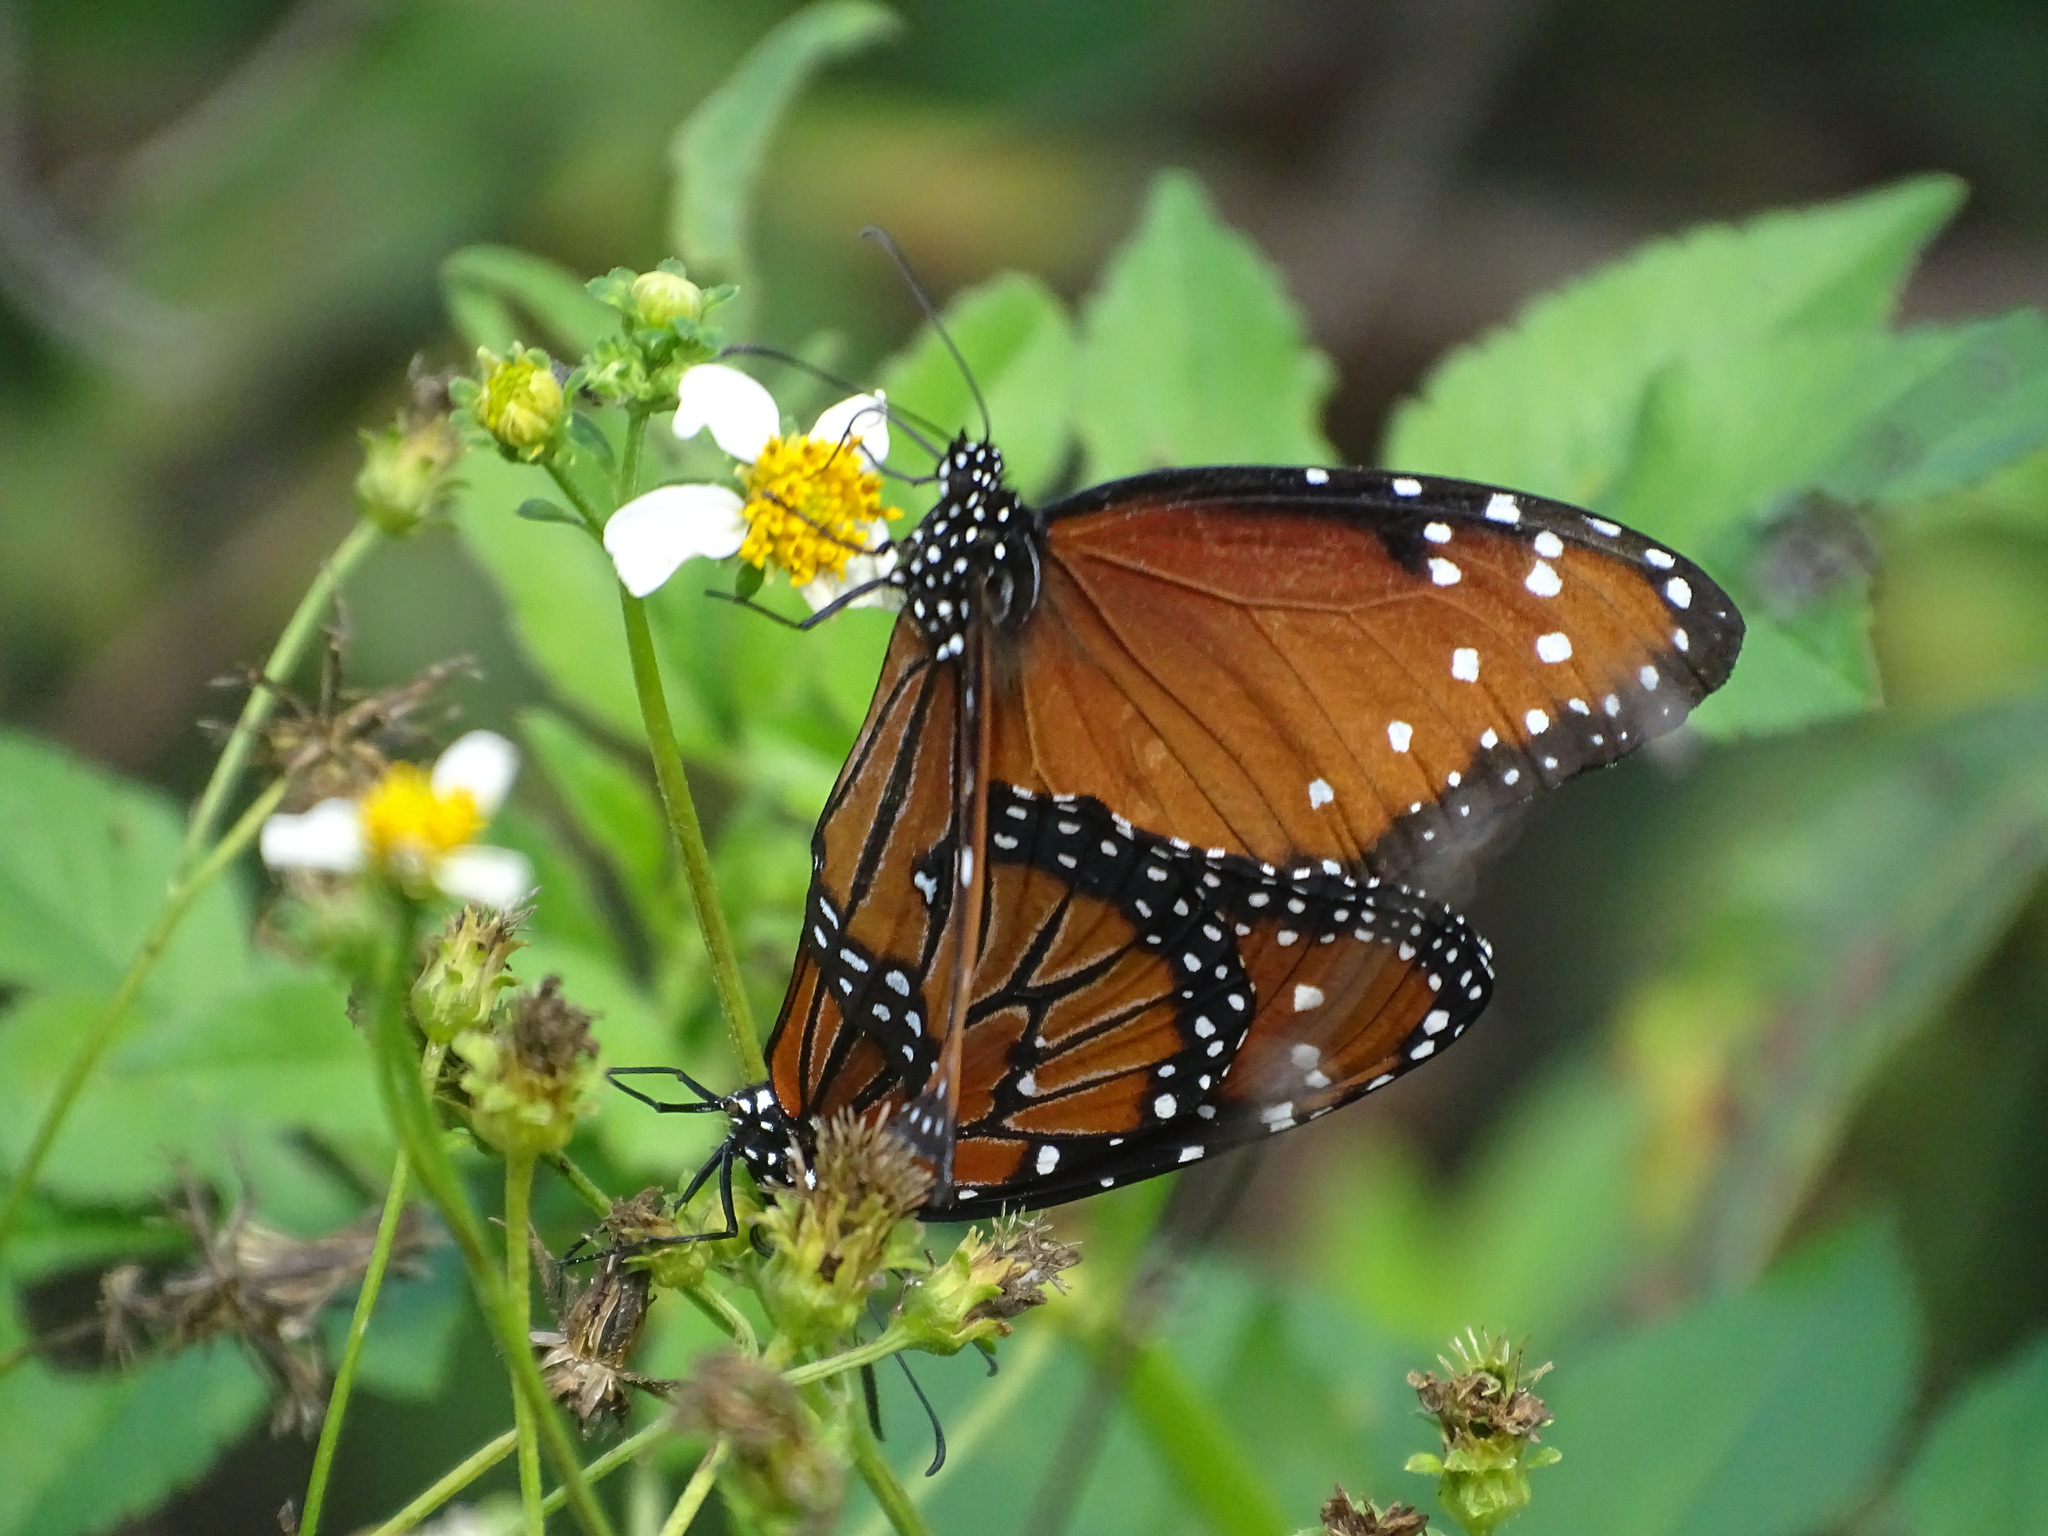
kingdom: Animalia
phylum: Arthropoda
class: Insecta
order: Lepidoptera
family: Nymphalidae
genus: Danaus
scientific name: Danaus gilippus
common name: Queen
